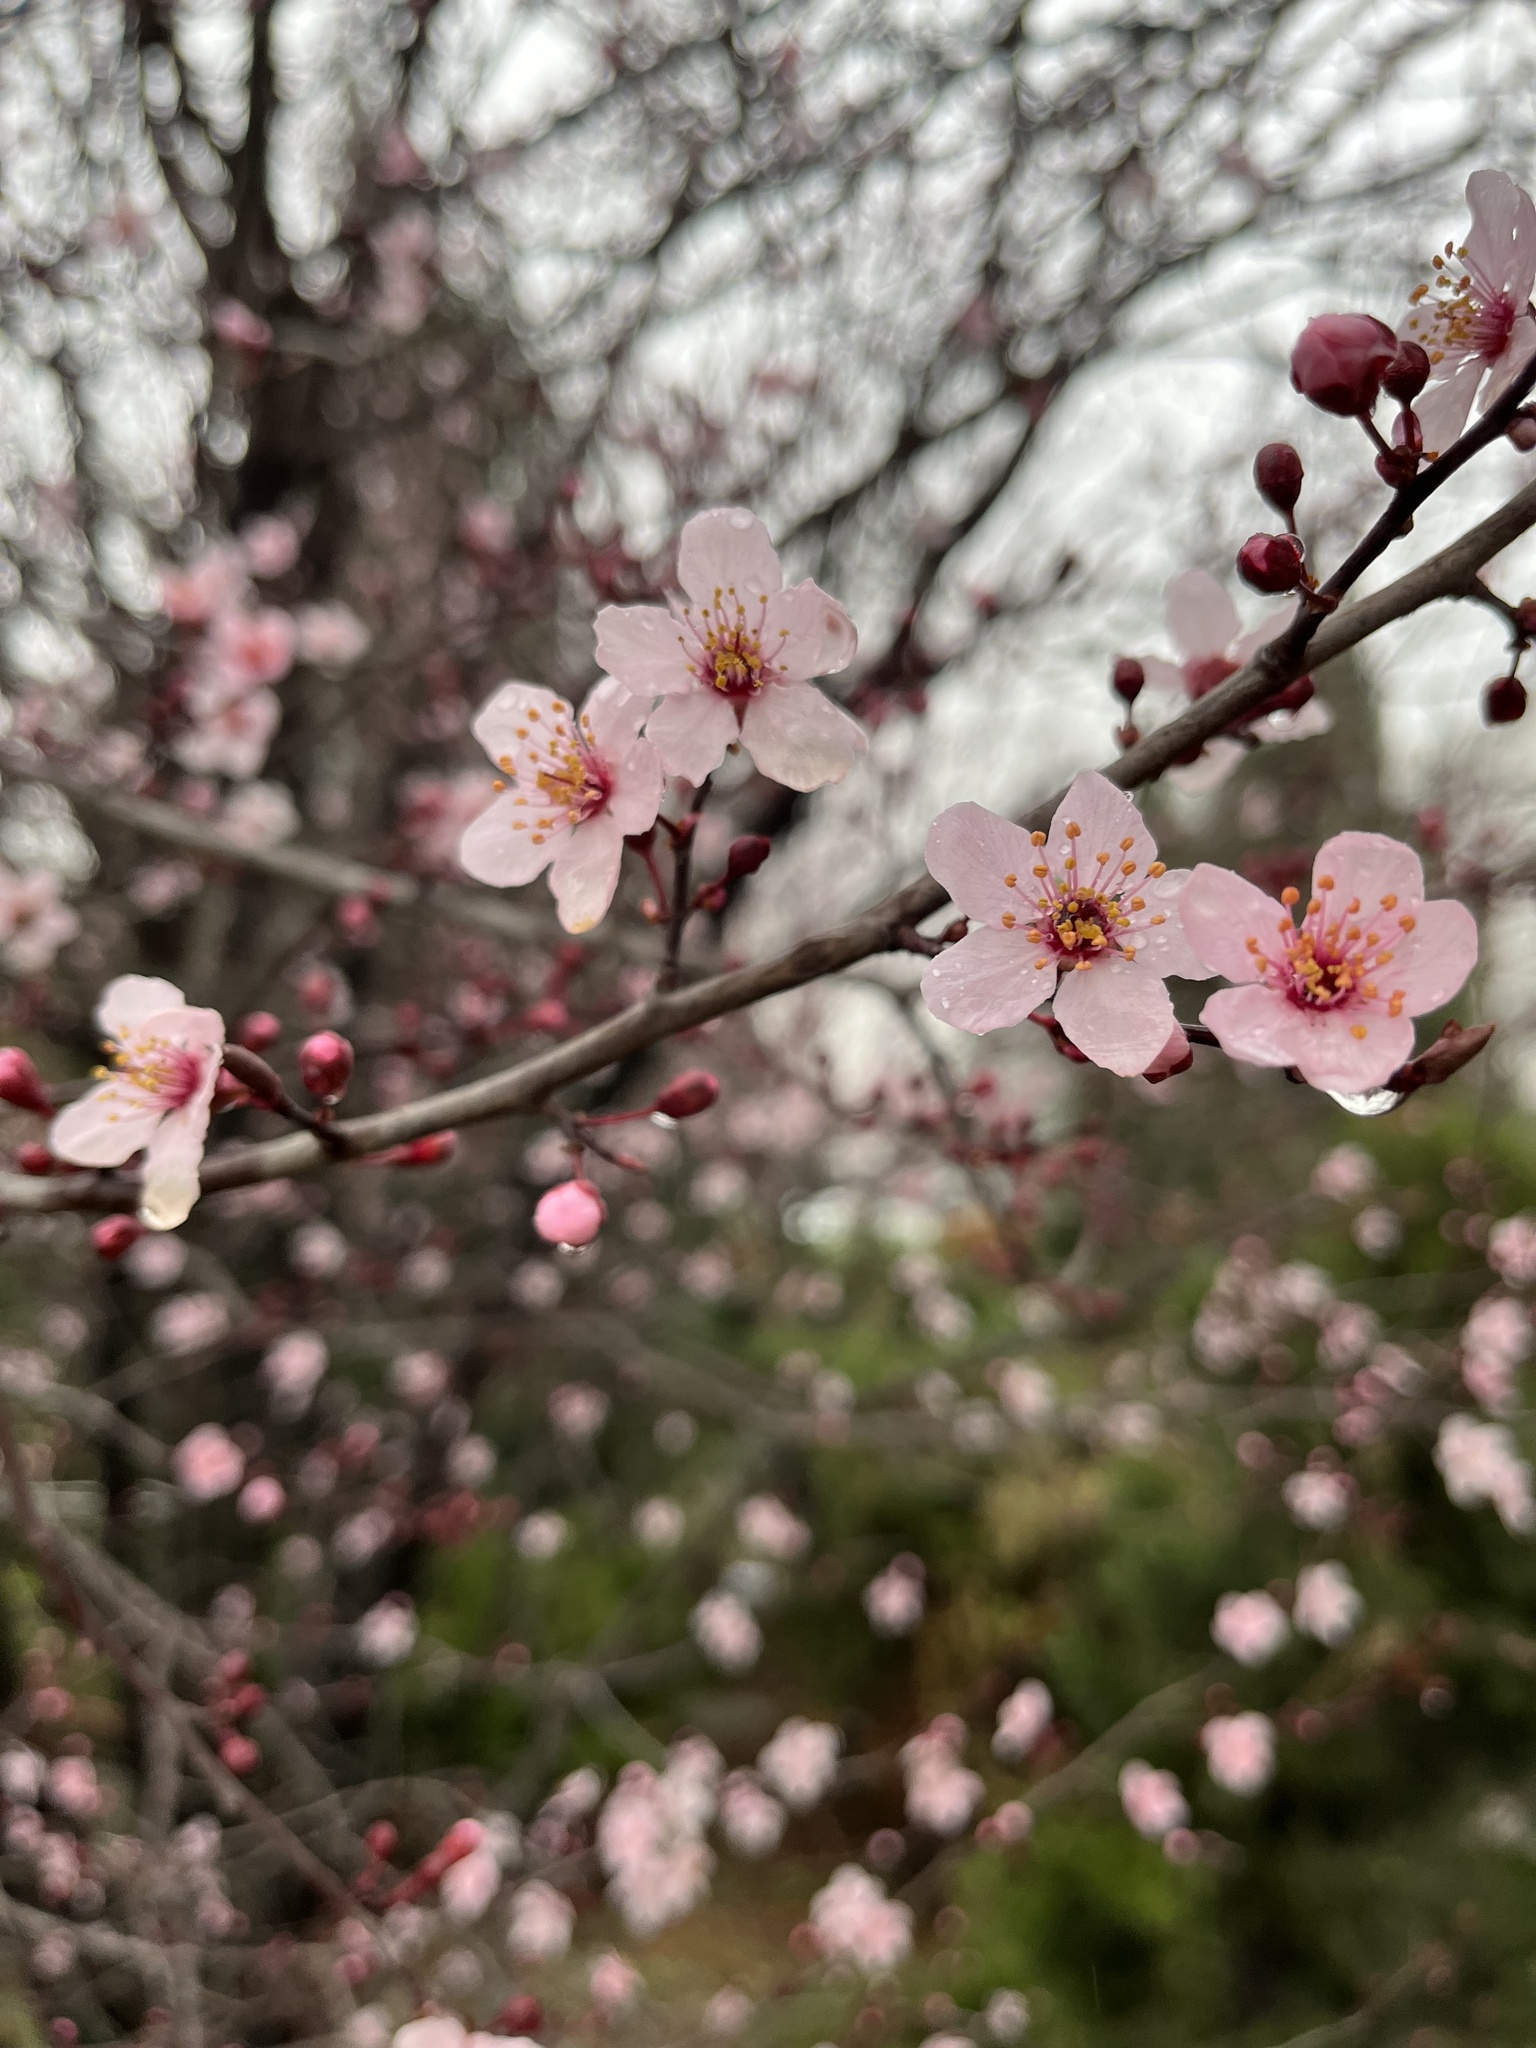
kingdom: Plantae
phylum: Tracheophyta
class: Magnoliopsida
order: Rosales
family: Rosaceae
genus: Prunus
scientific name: Prunus amygdalus
